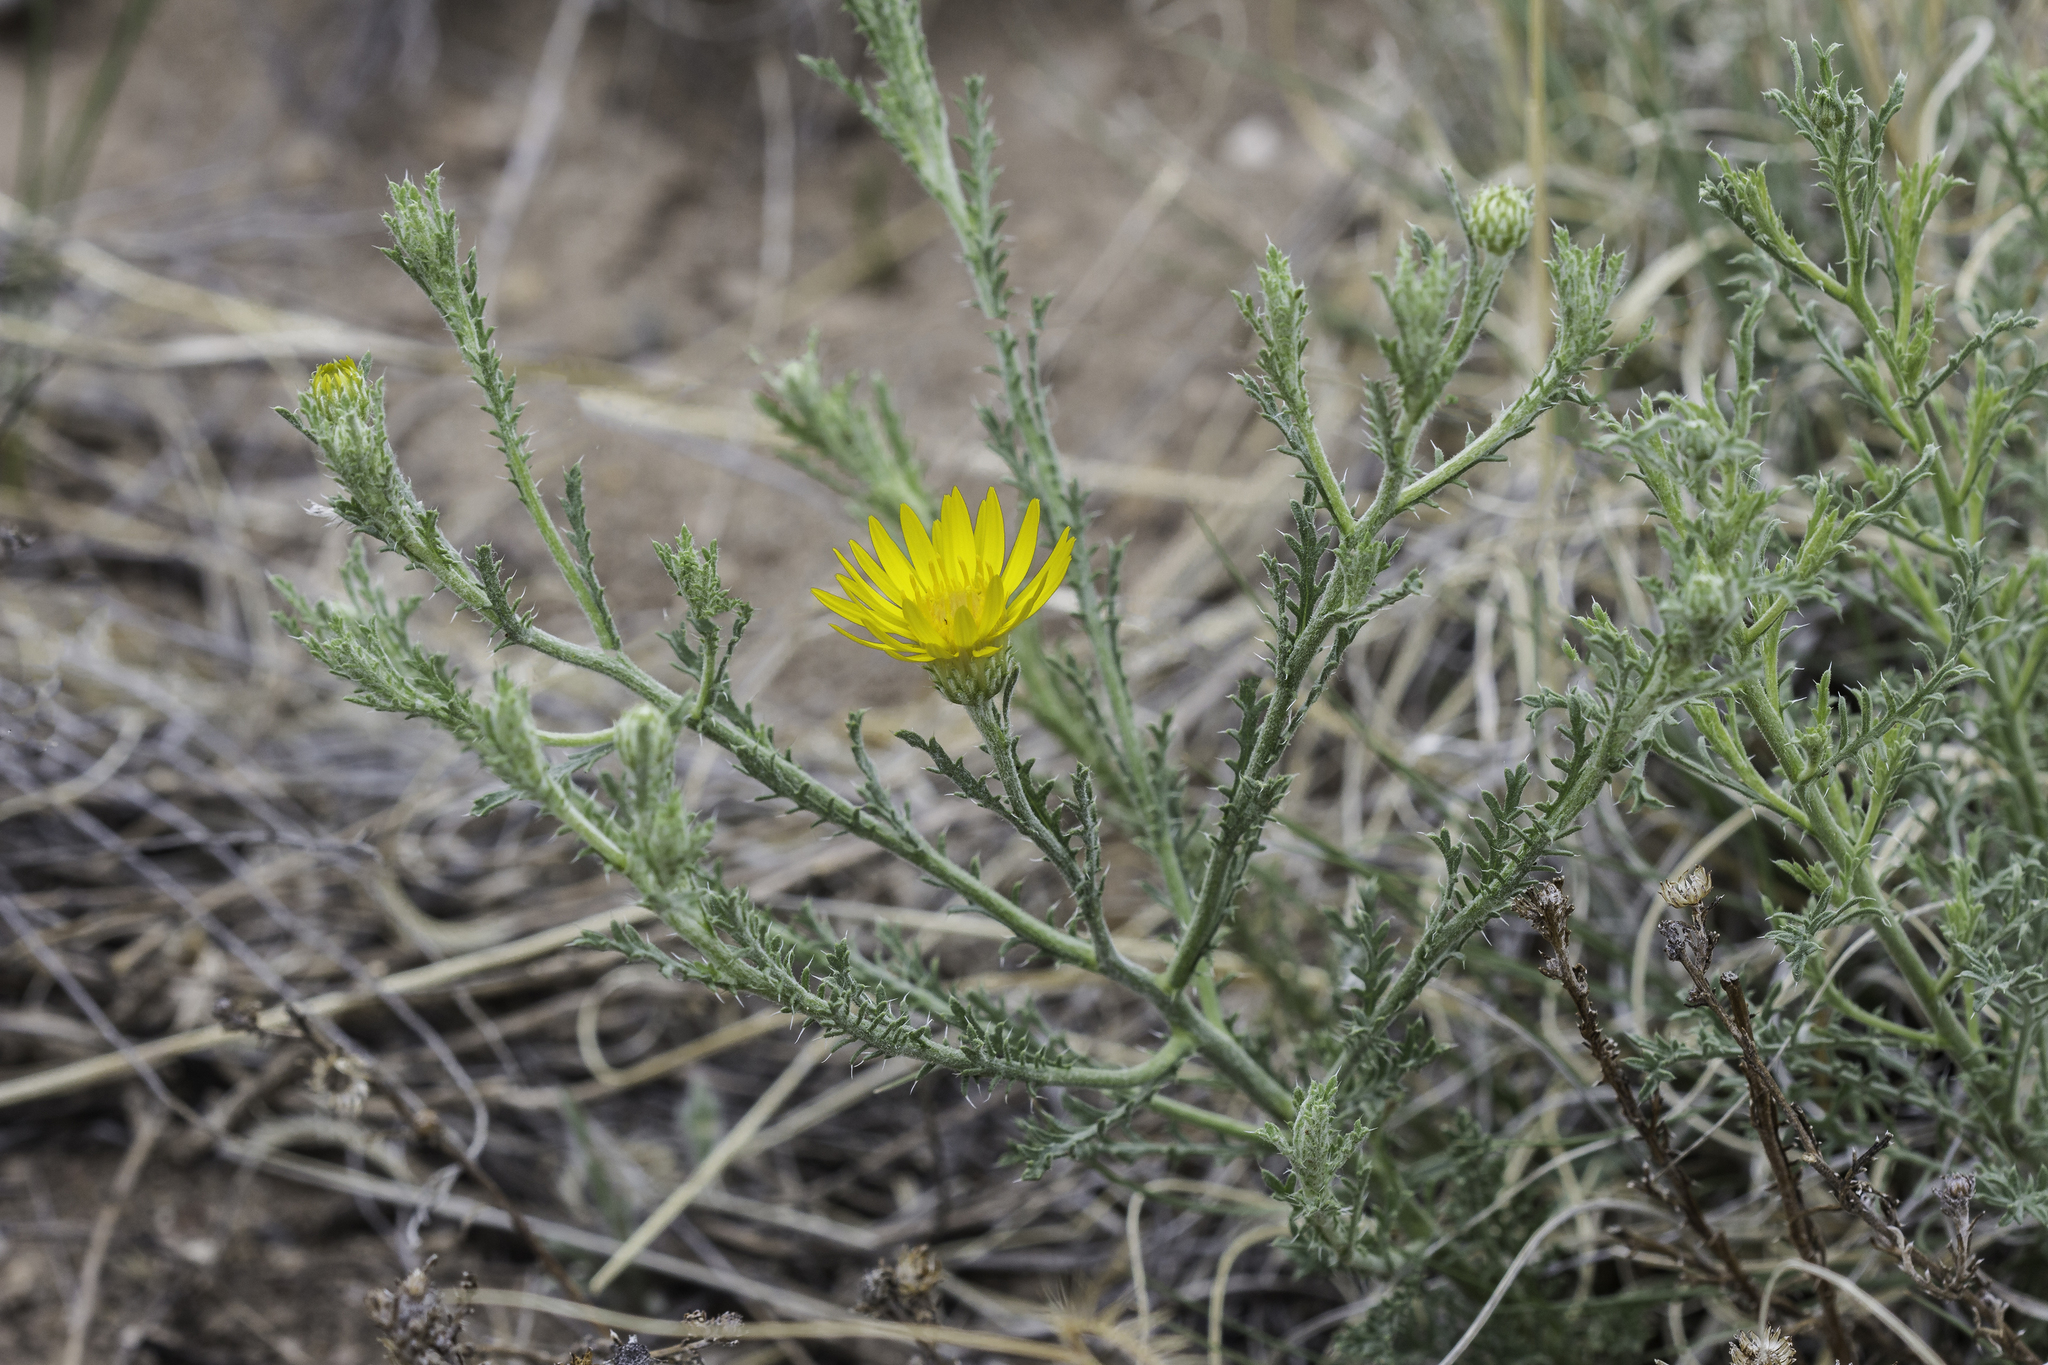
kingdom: Plantae
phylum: Tracheophyta
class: Magnoliopsida
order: Asterales
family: Asteraceae
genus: Xanthisma
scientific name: Xanthisma spinulosum
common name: Spiny goldenweed
